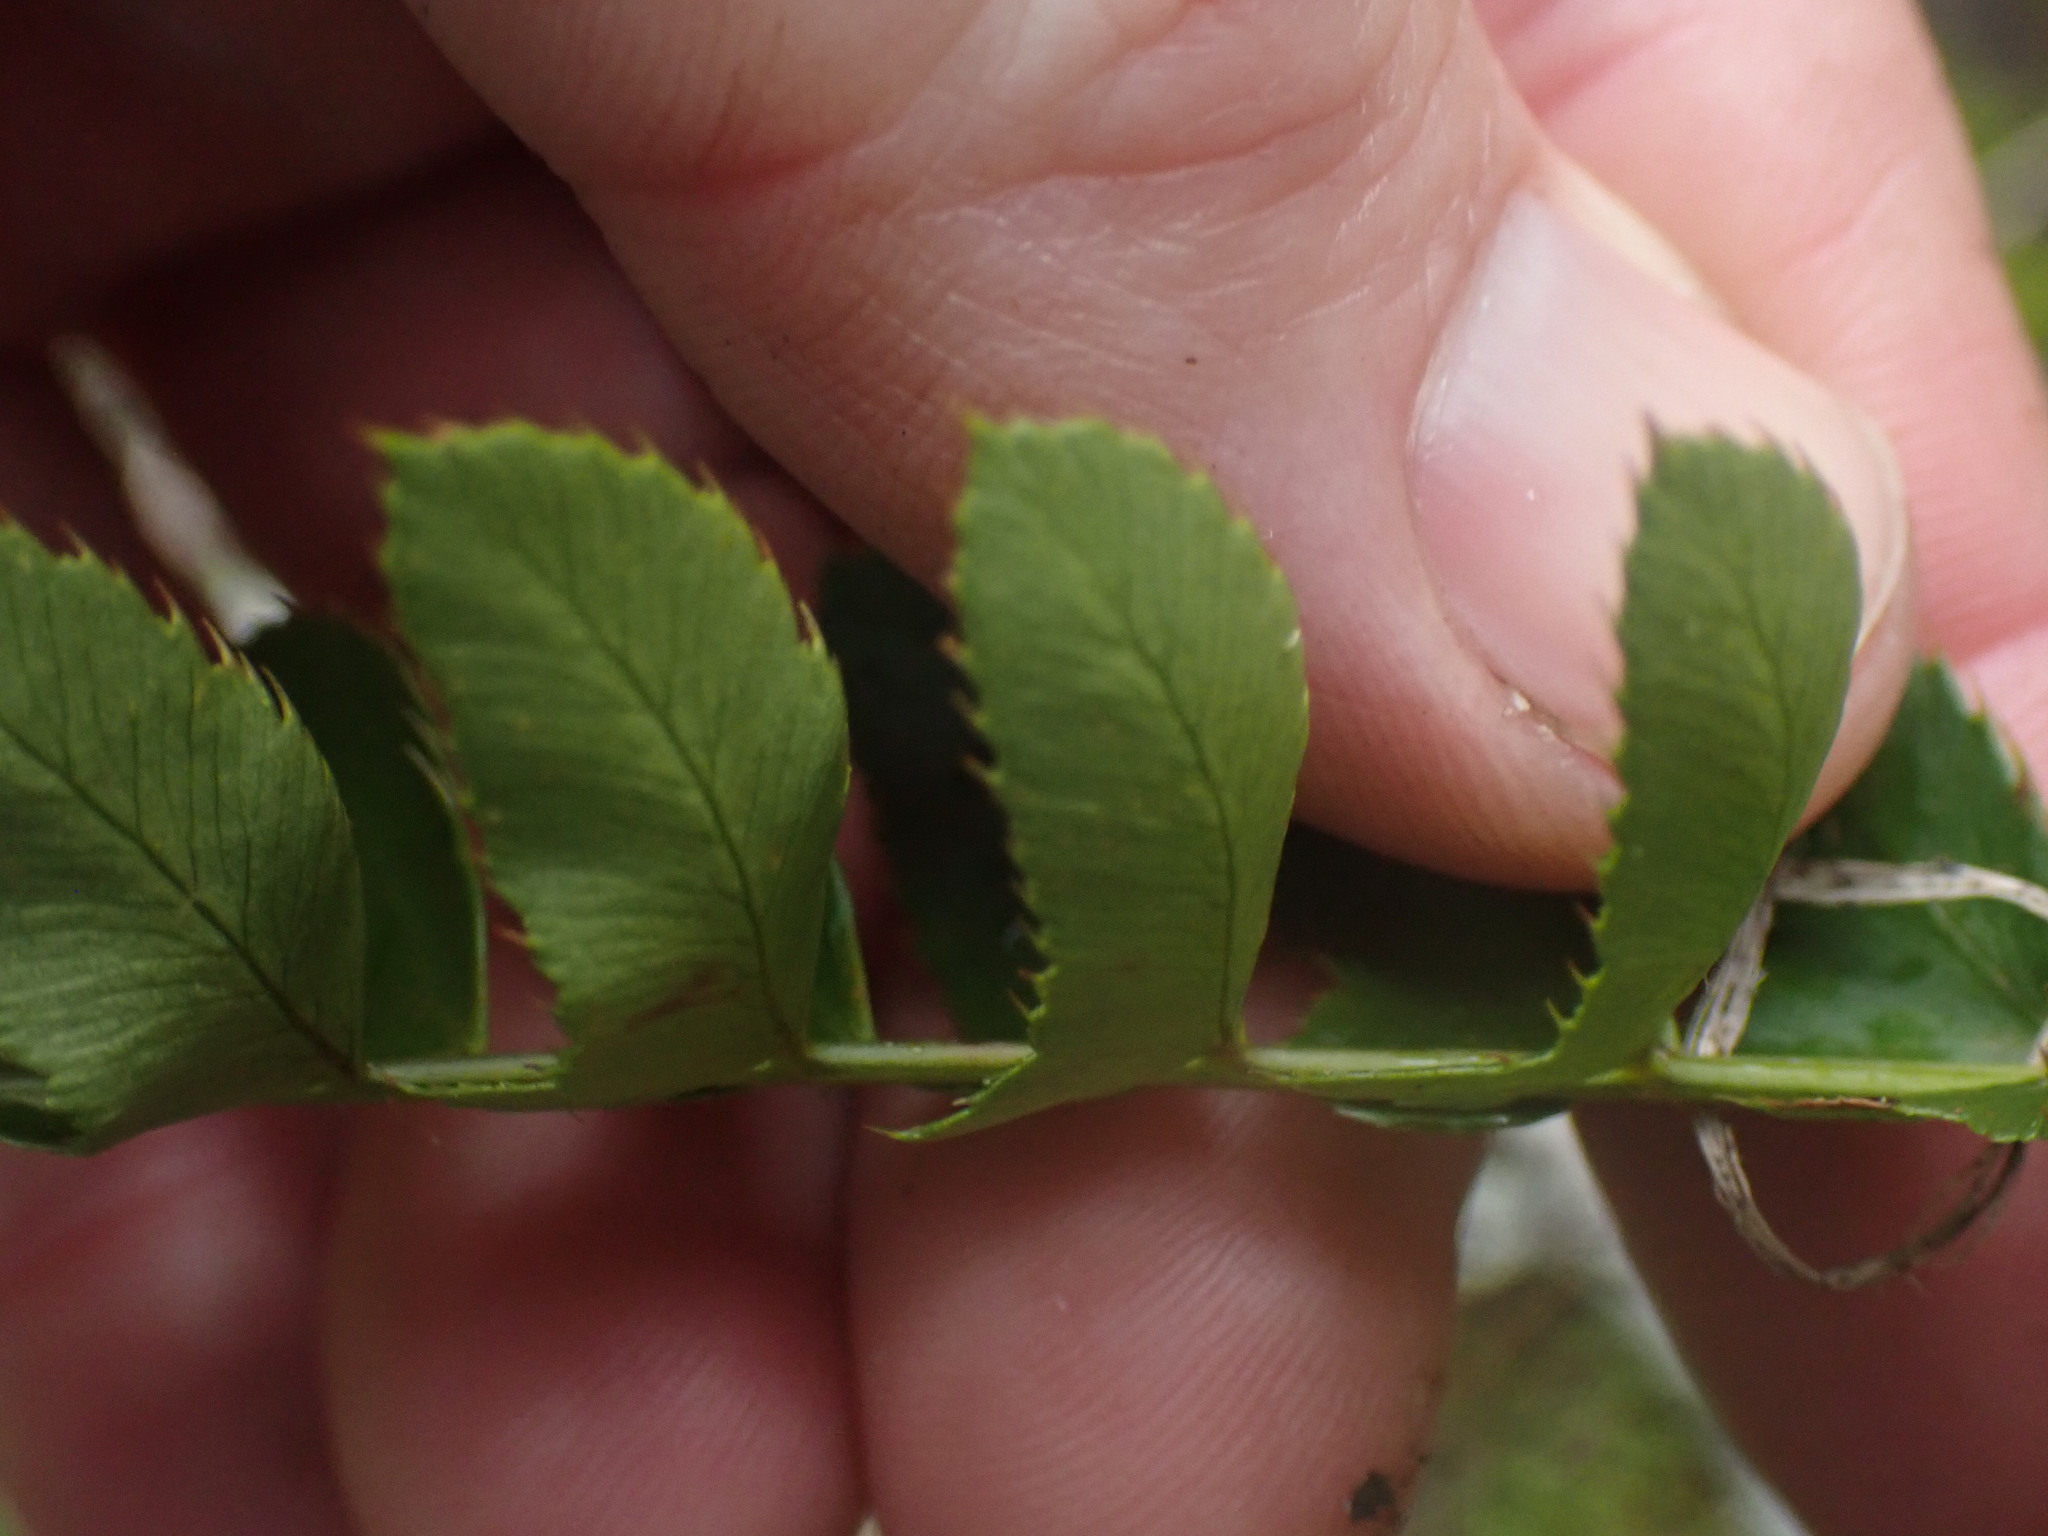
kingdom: Plantae
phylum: Tracheophyta
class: Polypodiopsida
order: Polypodiales
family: Dryopteridaceae
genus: Polystichum
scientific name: Polystichum imbricans
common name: Dwarf western sword fern
